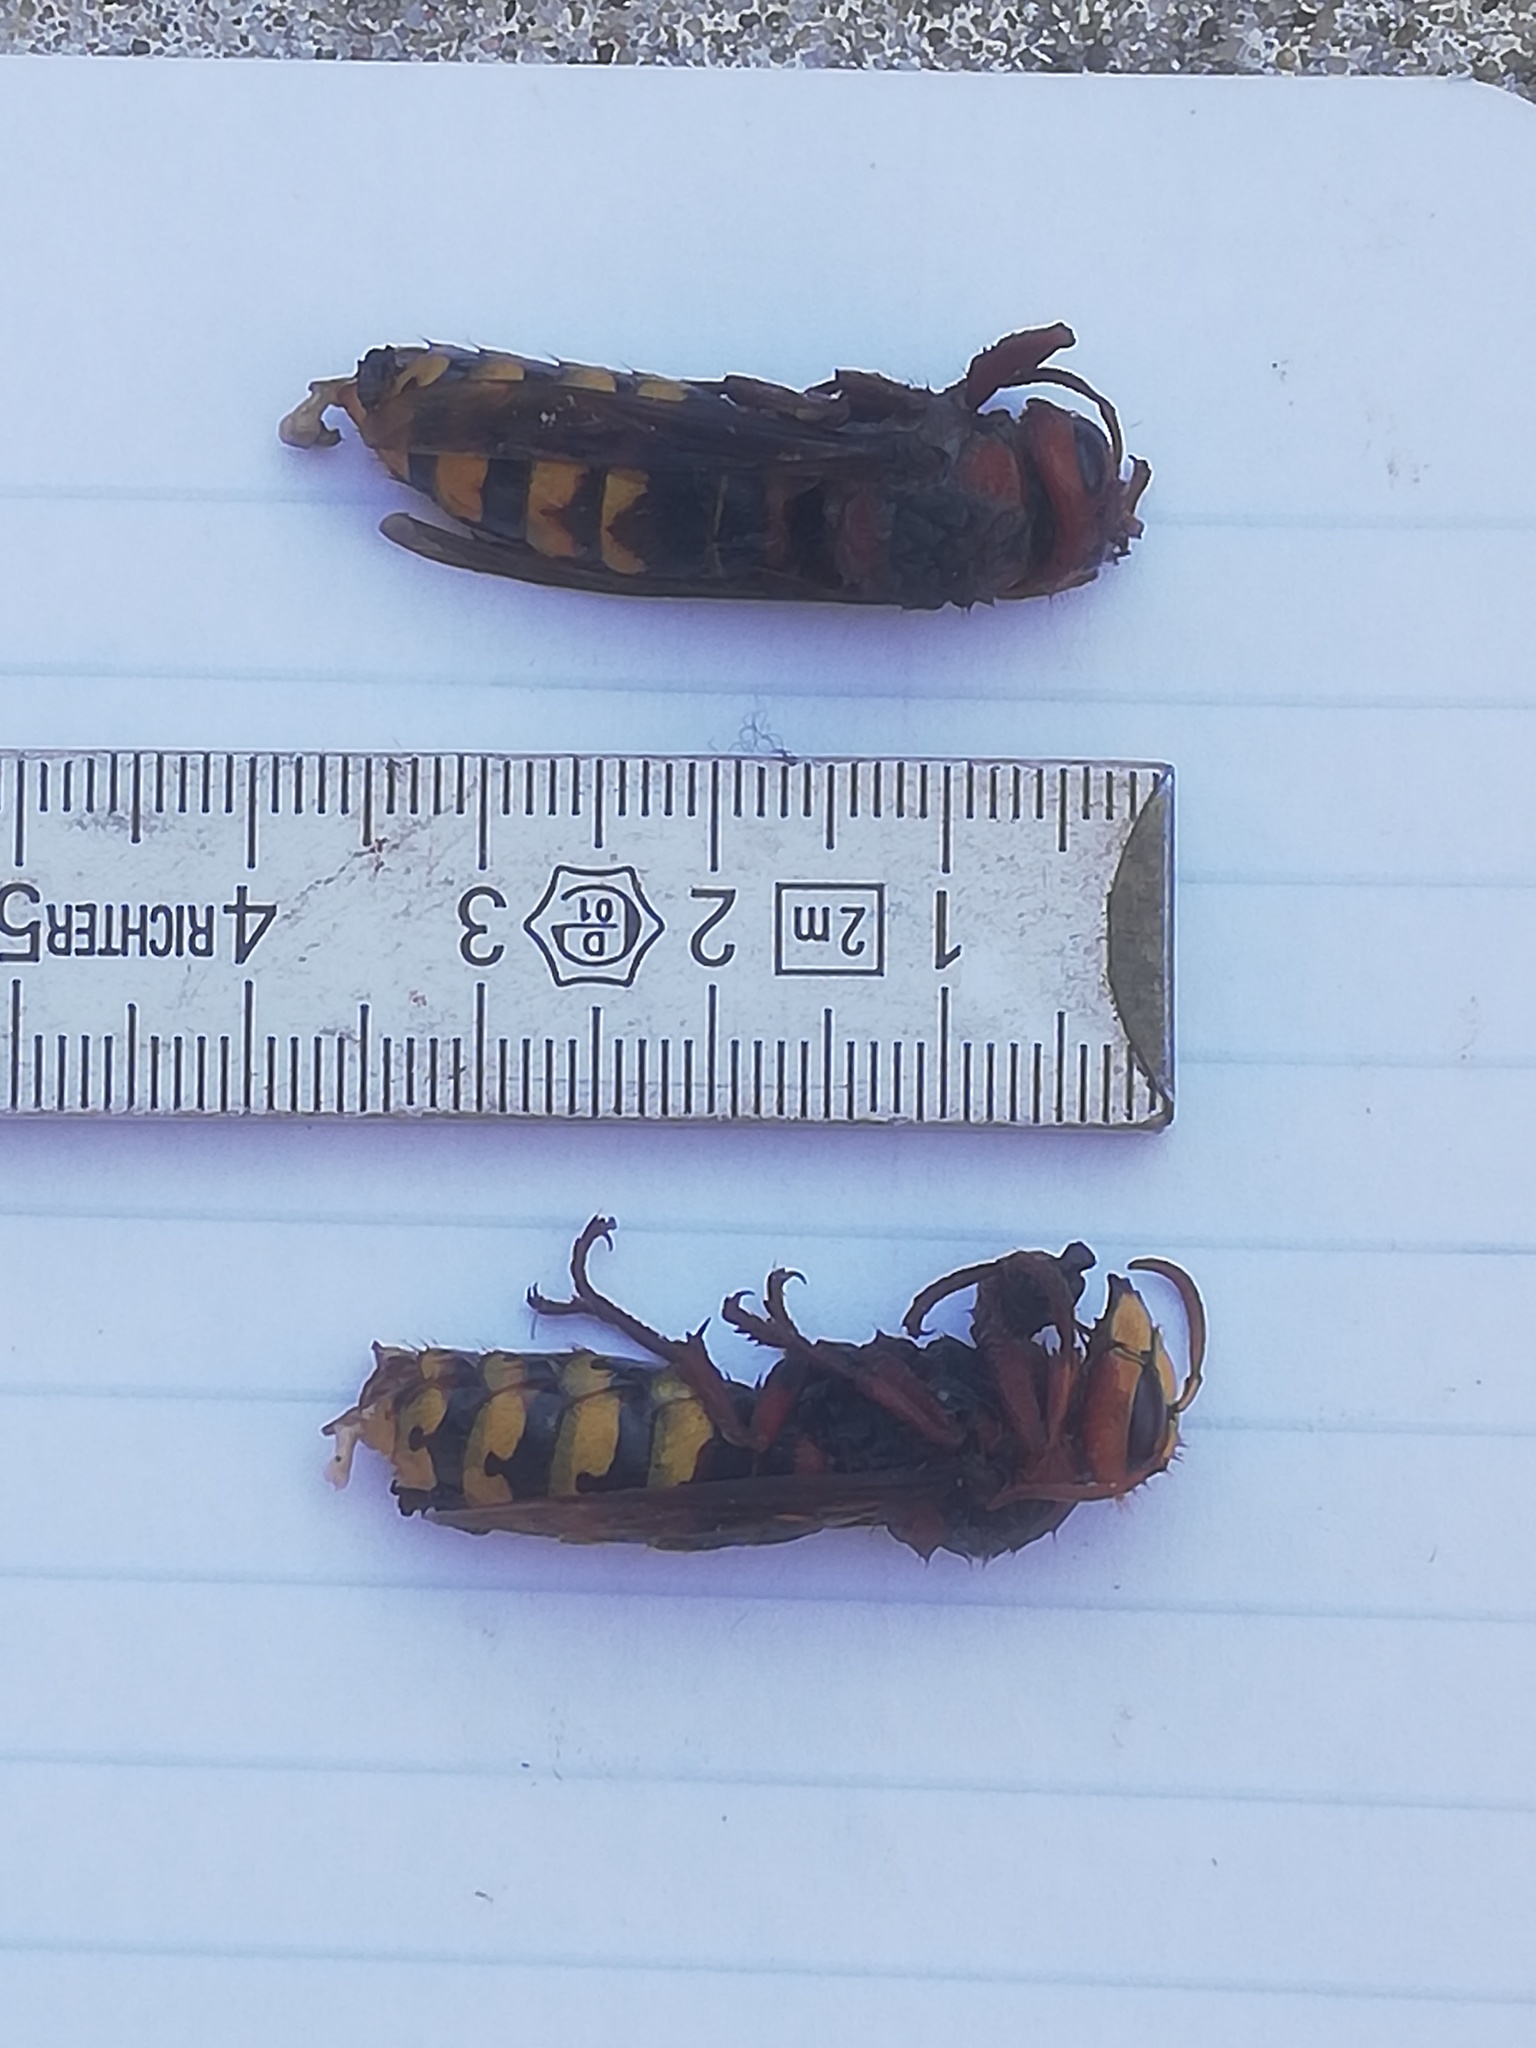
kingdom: Animalia
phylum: Arthropoda
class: Insecta
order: Hymenoptera
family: Vespidae
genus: Vespa
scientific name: Vespa crabro
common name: Hornet
